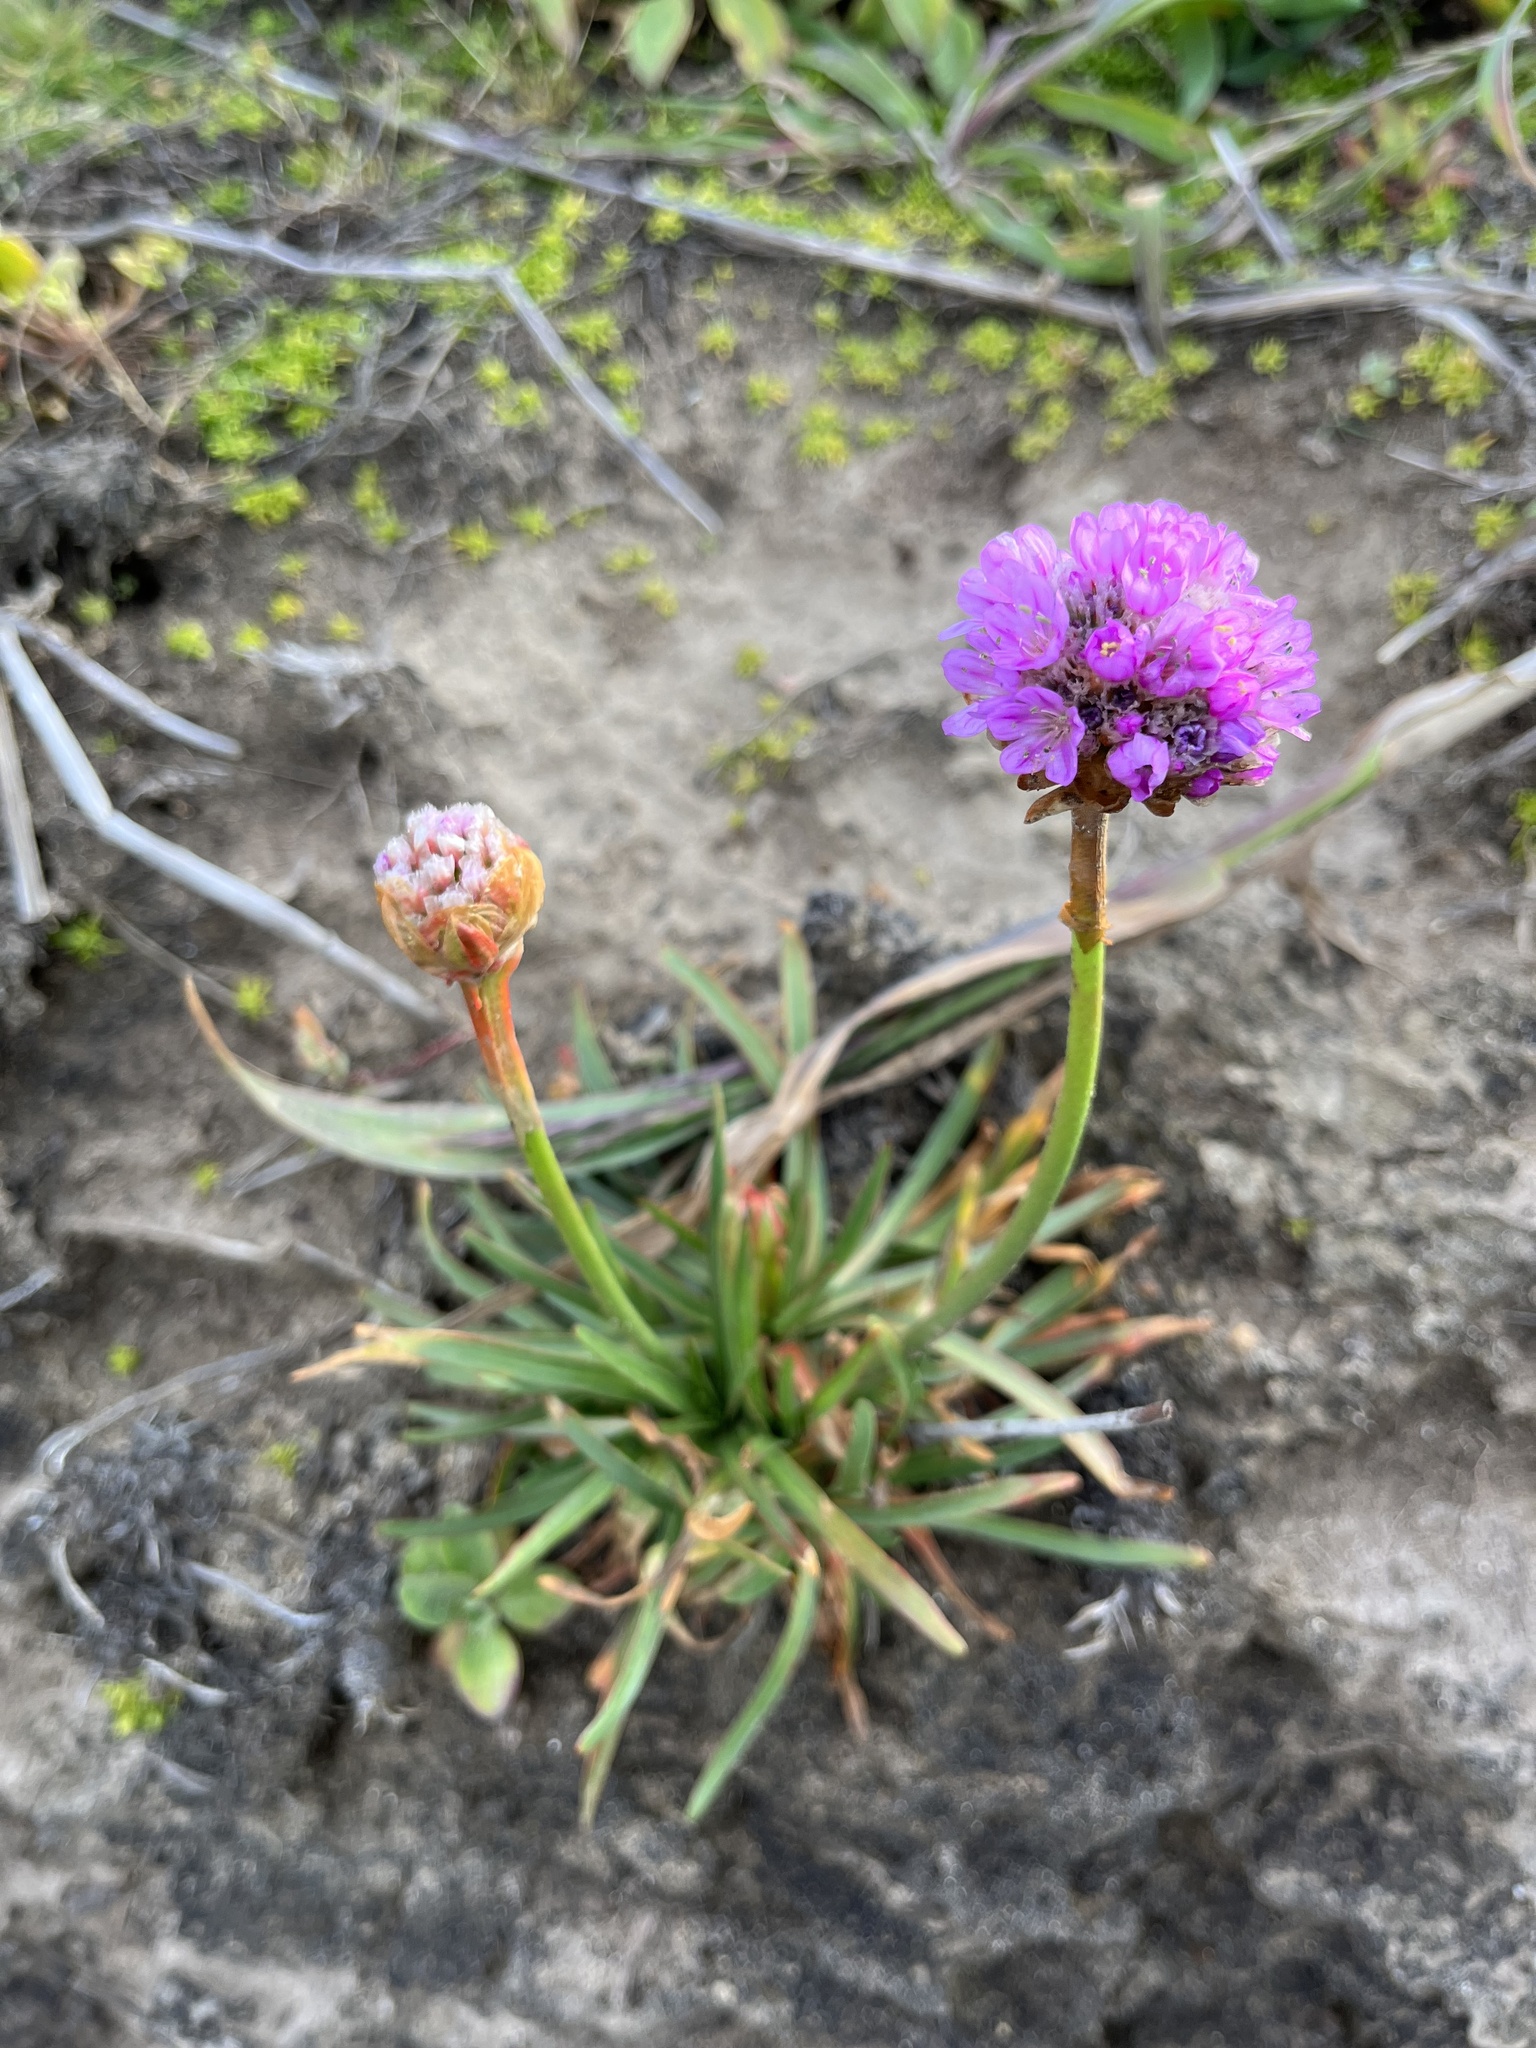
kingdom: Plantae
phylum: Tracheophyta
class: Magnoliopsida
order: Caryophyllales
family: Plumbaginaceae
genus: Armeria
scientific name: Armeria maritima
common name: Thrift
